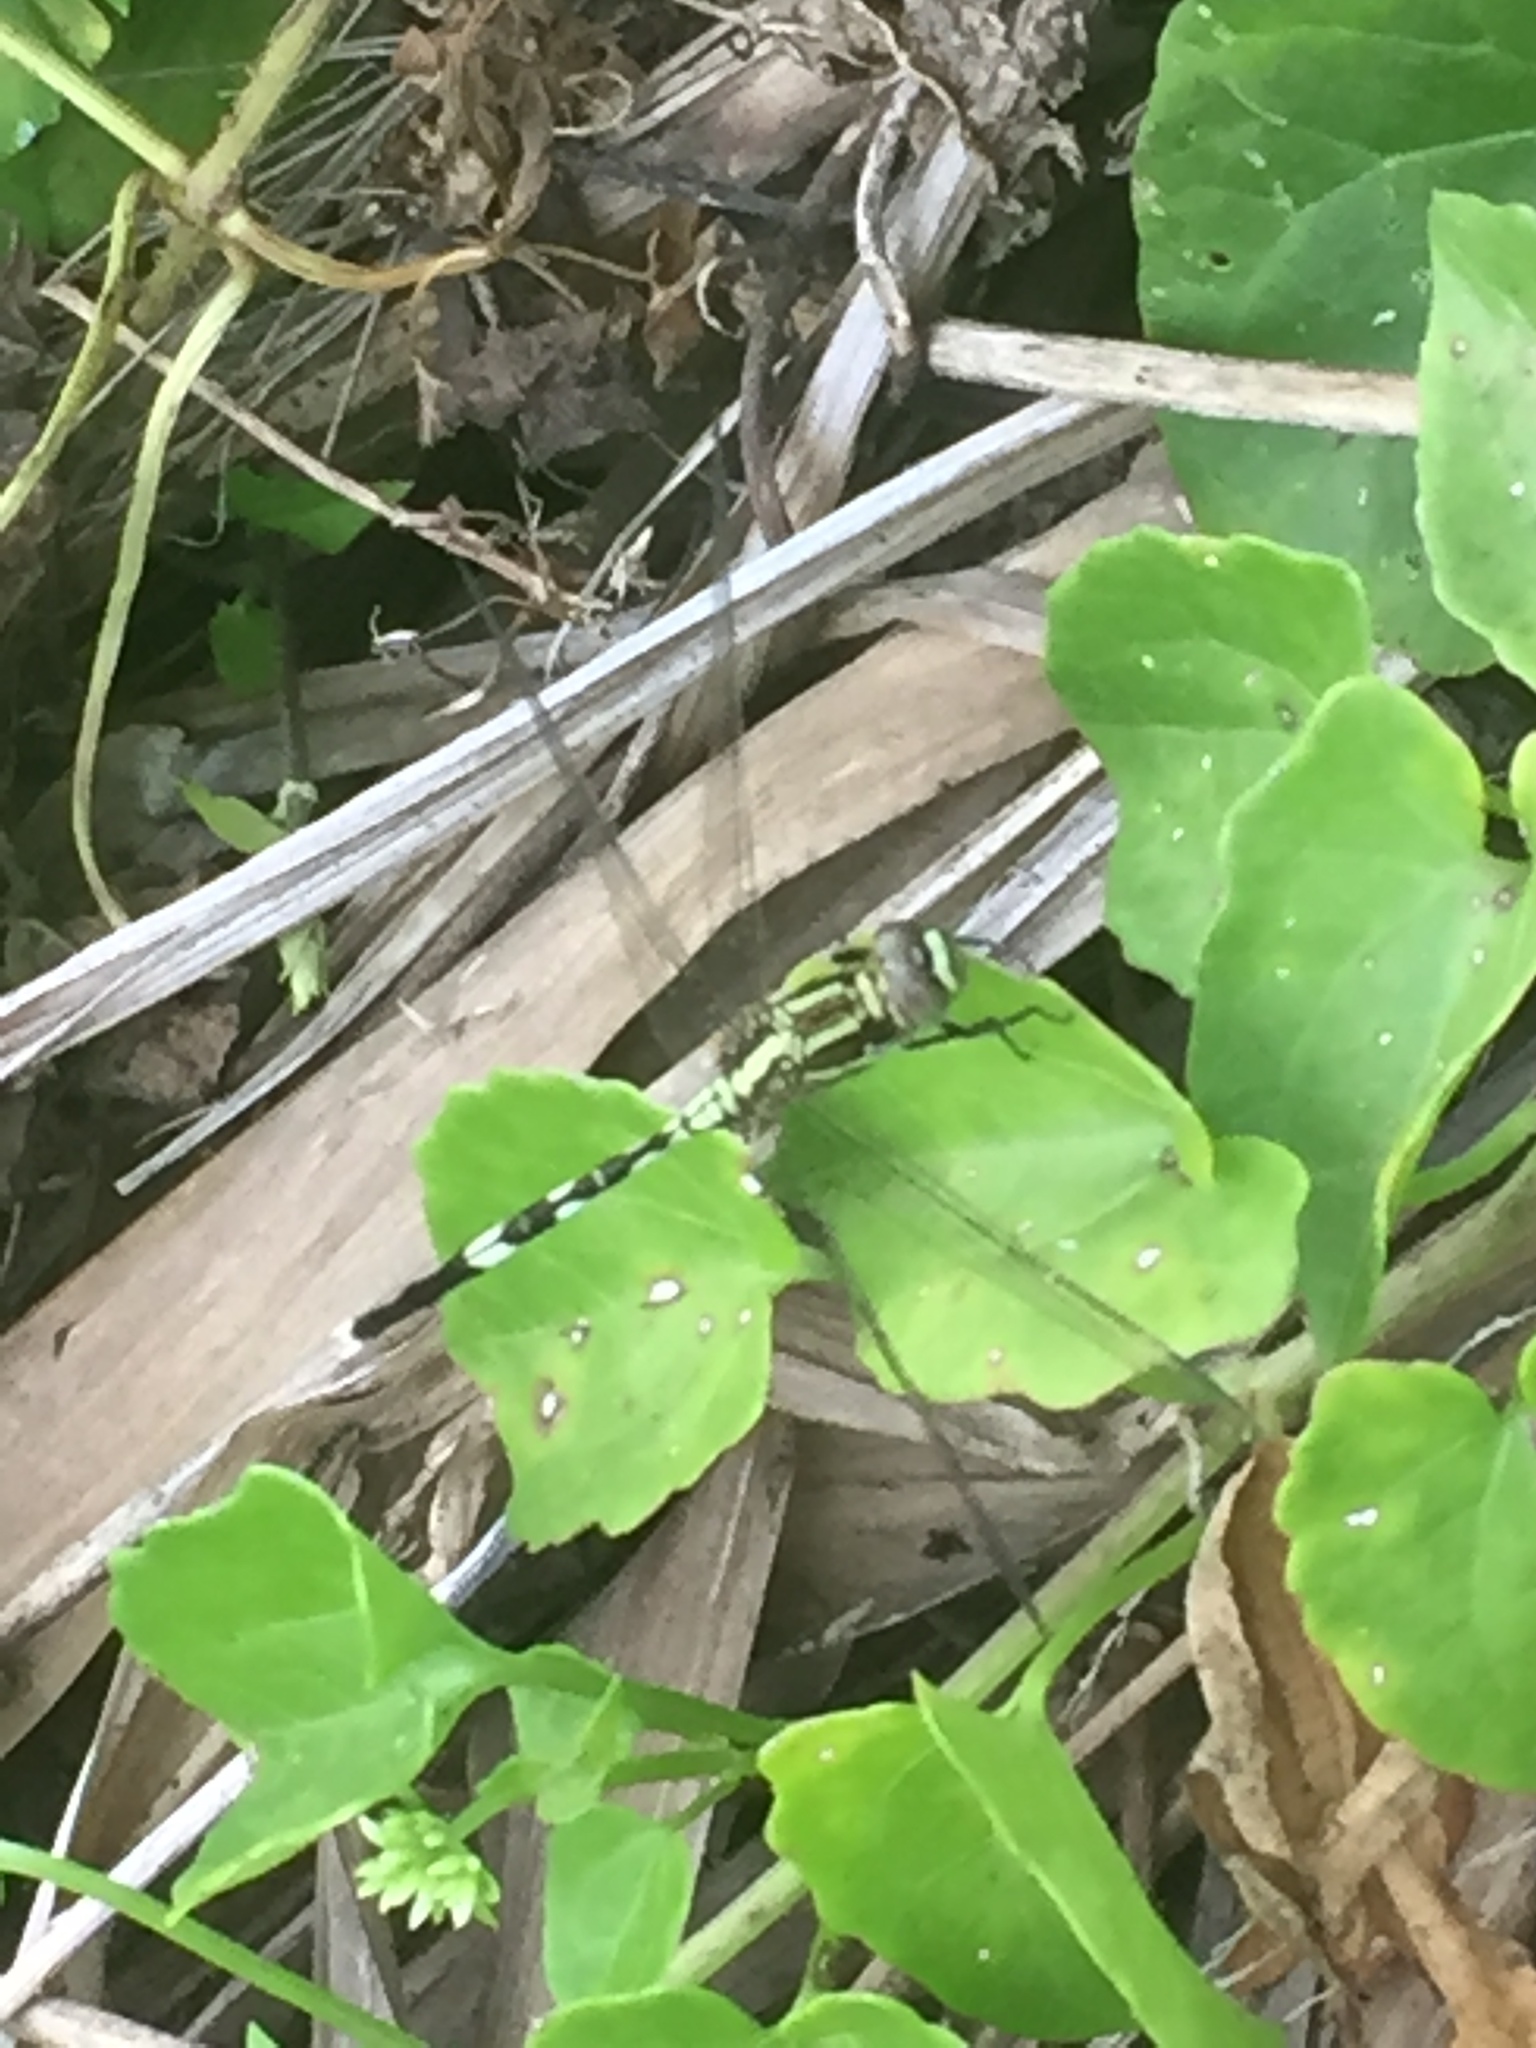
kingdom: Animalia
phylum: Arthropoda
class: Insecta
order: Odonata
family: Libellulidae
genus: Orthetrum
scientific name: Orthetrum sabina
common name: Slender skimmer
